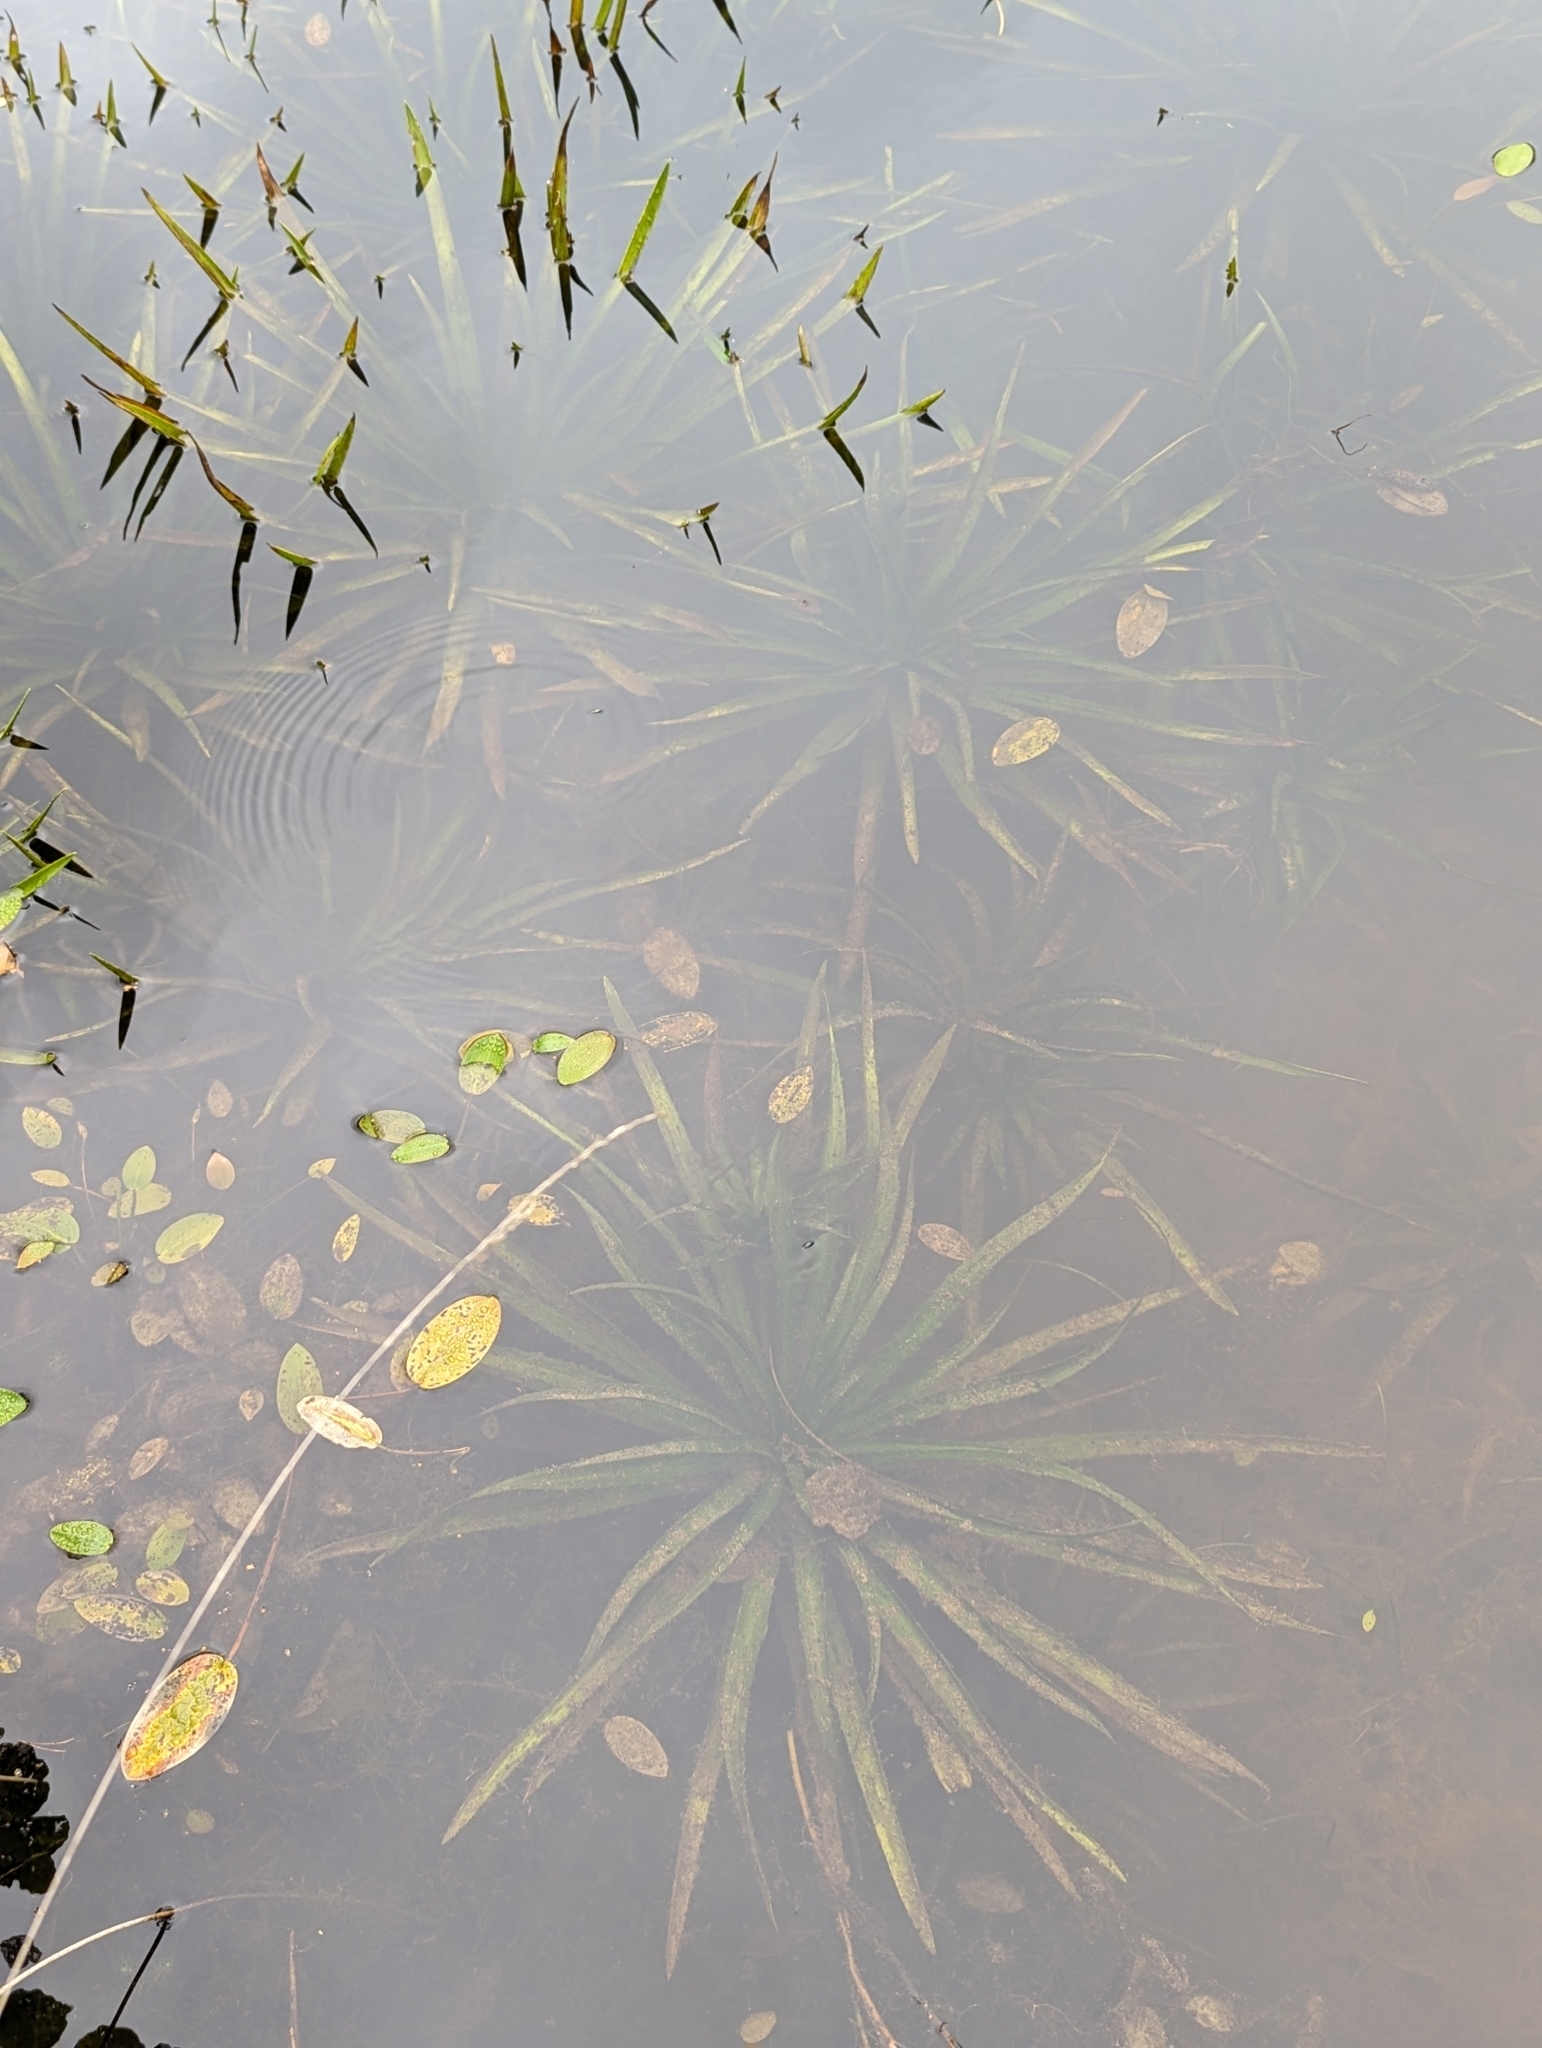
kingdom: Plantae
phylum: Tracheophyta
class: Liliopsida
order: Alismatales
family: Hydrocharitaceae
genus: Stratiotes
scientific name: Stratiotes aloides
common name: Water-soldier
